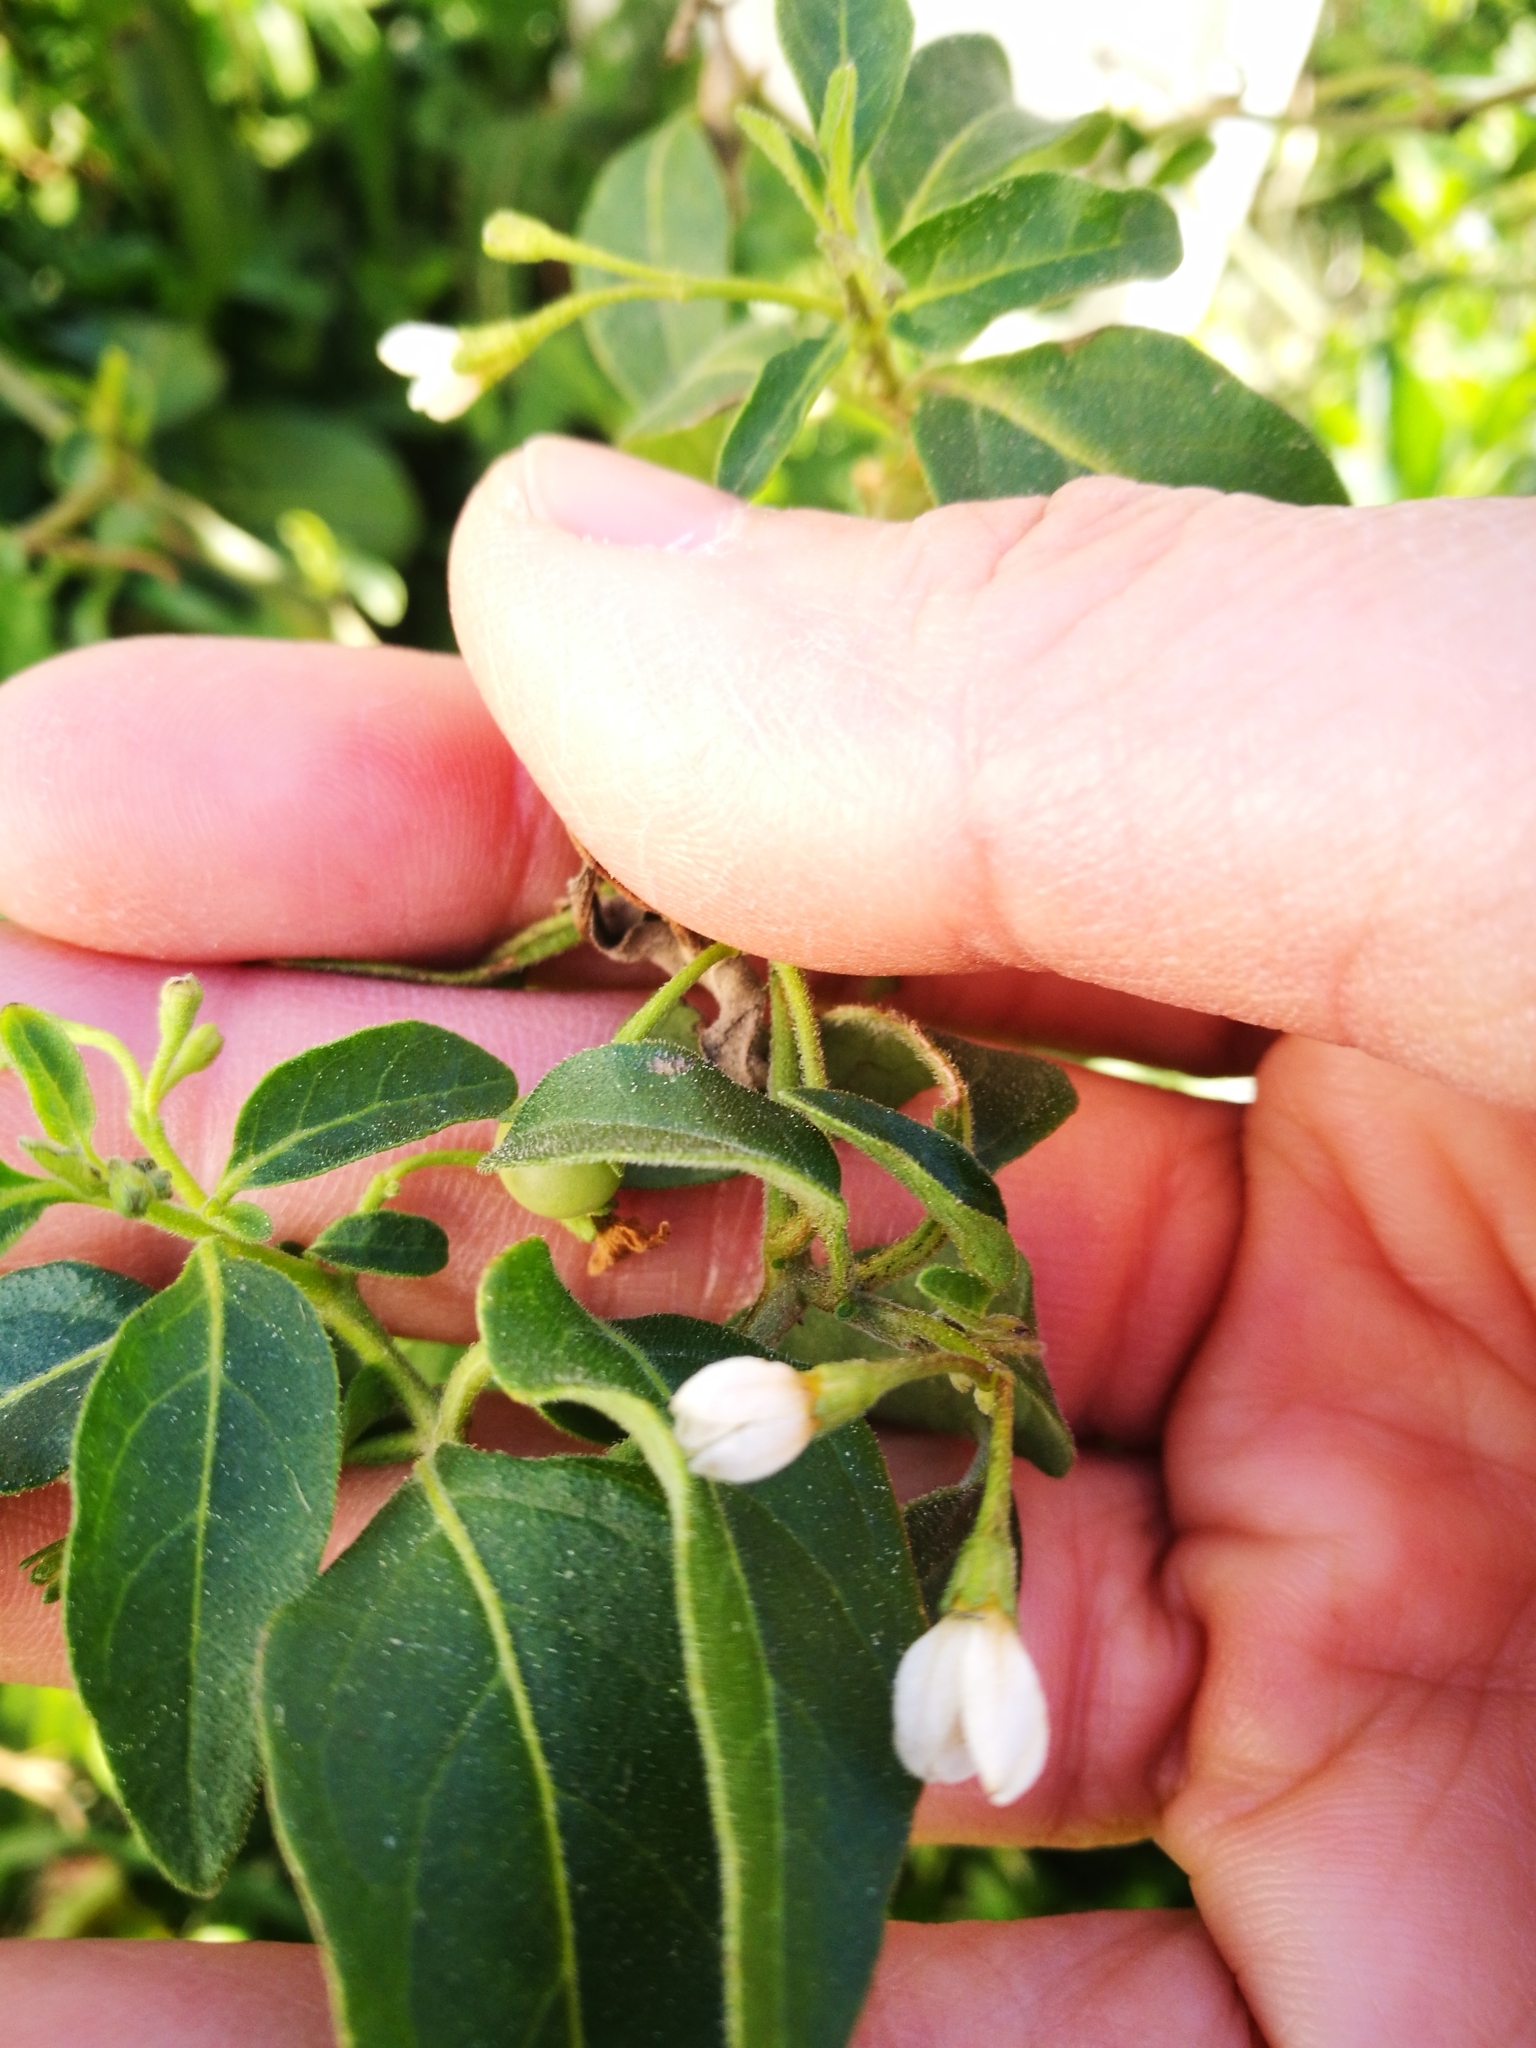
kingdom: Plantae
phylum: Tracheophyta
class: Magnoliopsida
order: Solanales
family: Solanaceae
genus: Solanum
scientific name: Solanum chenopodioides
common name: Tall nightshade
